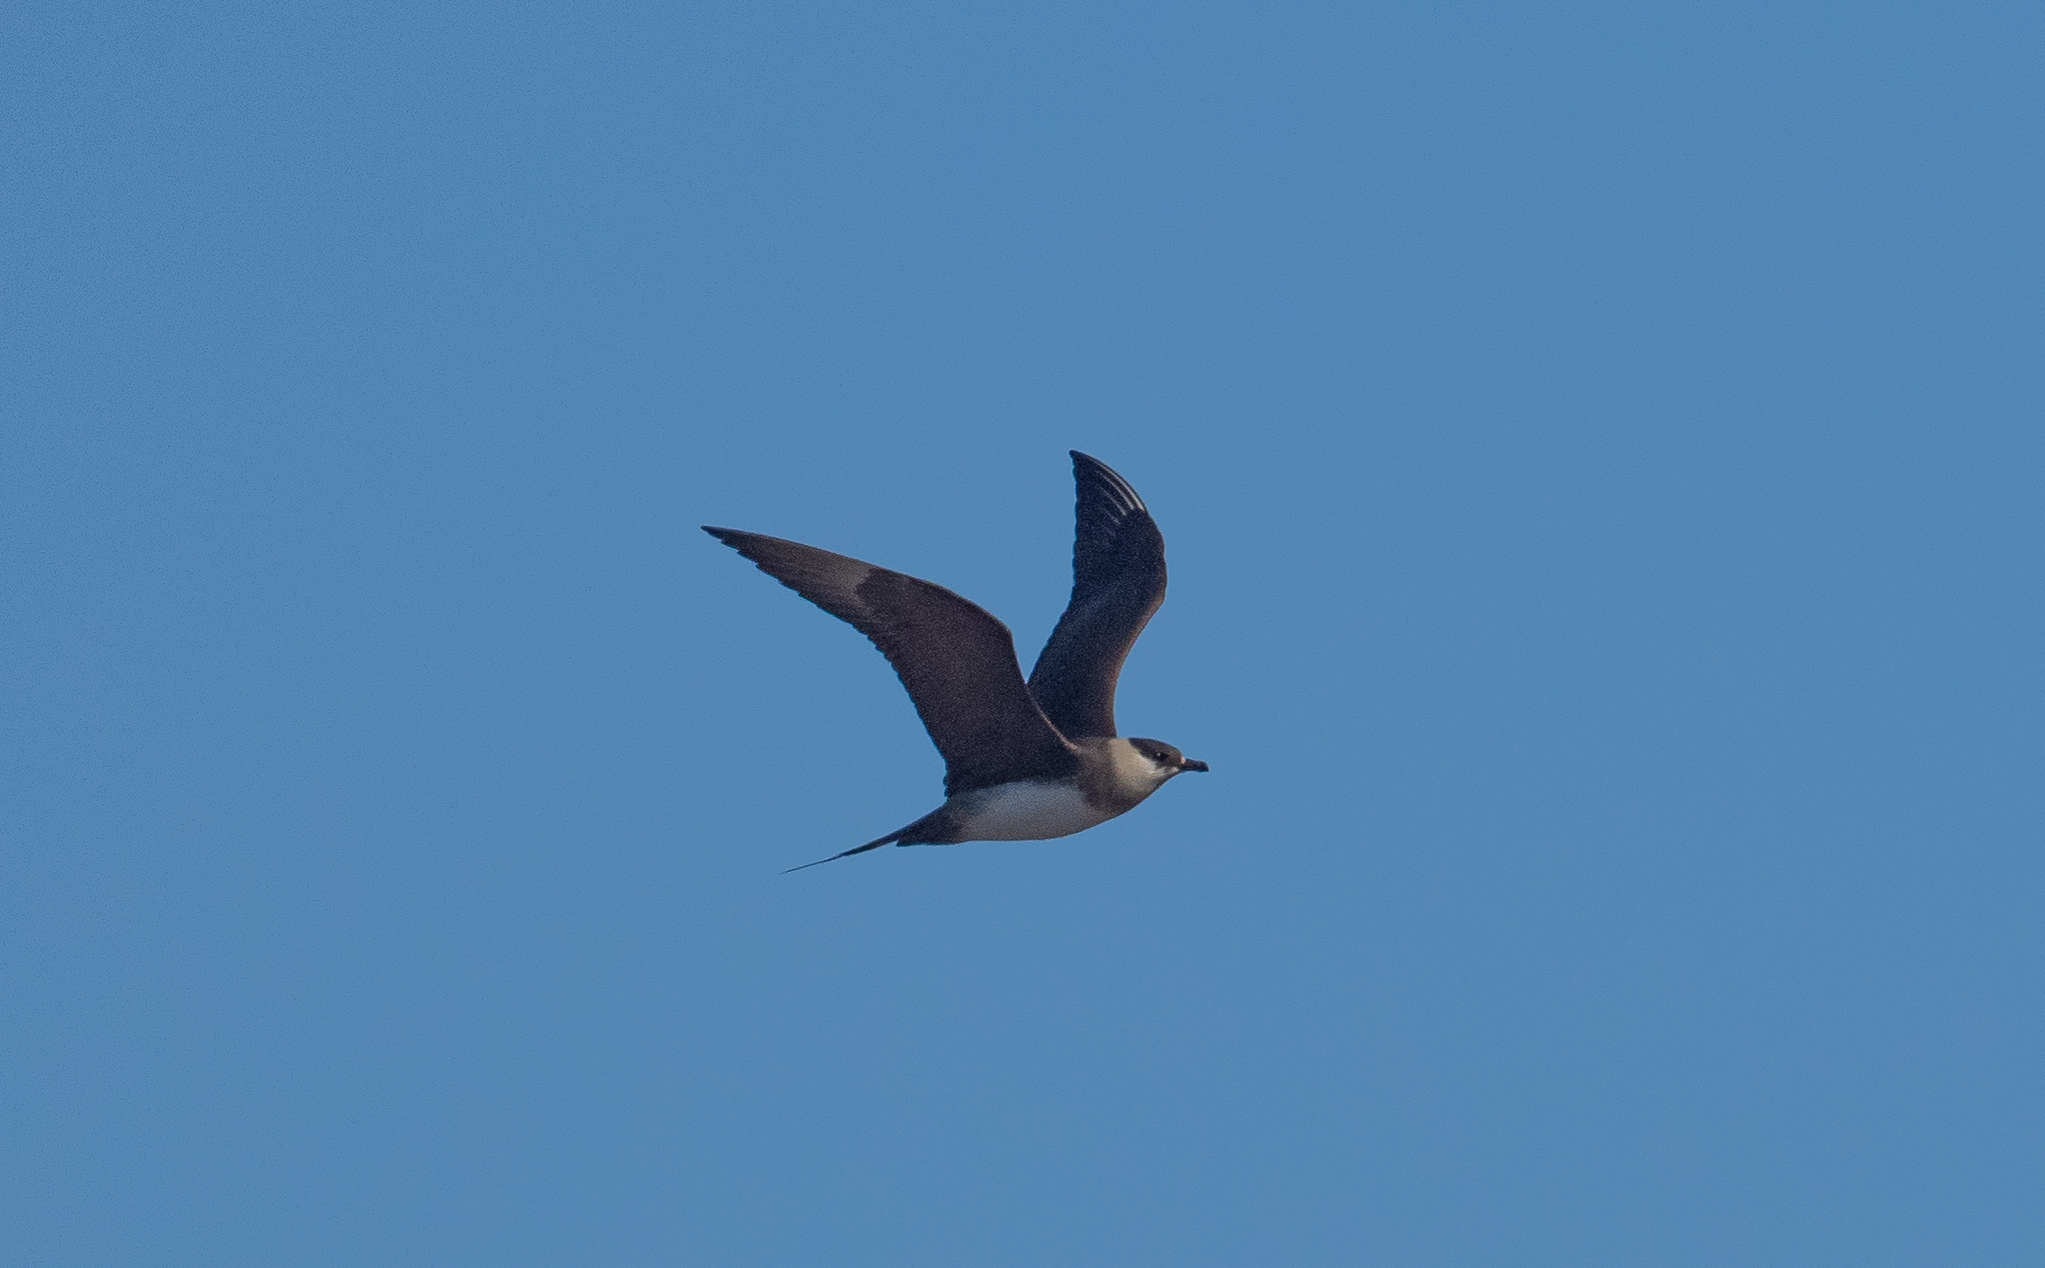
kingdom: Animalia
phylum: Chordata
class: Aves
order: Charadriiformes
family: Stercorariidae
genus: Stercorarius
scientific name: Stercorarius parasiticus
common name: Parasitic jaeger
